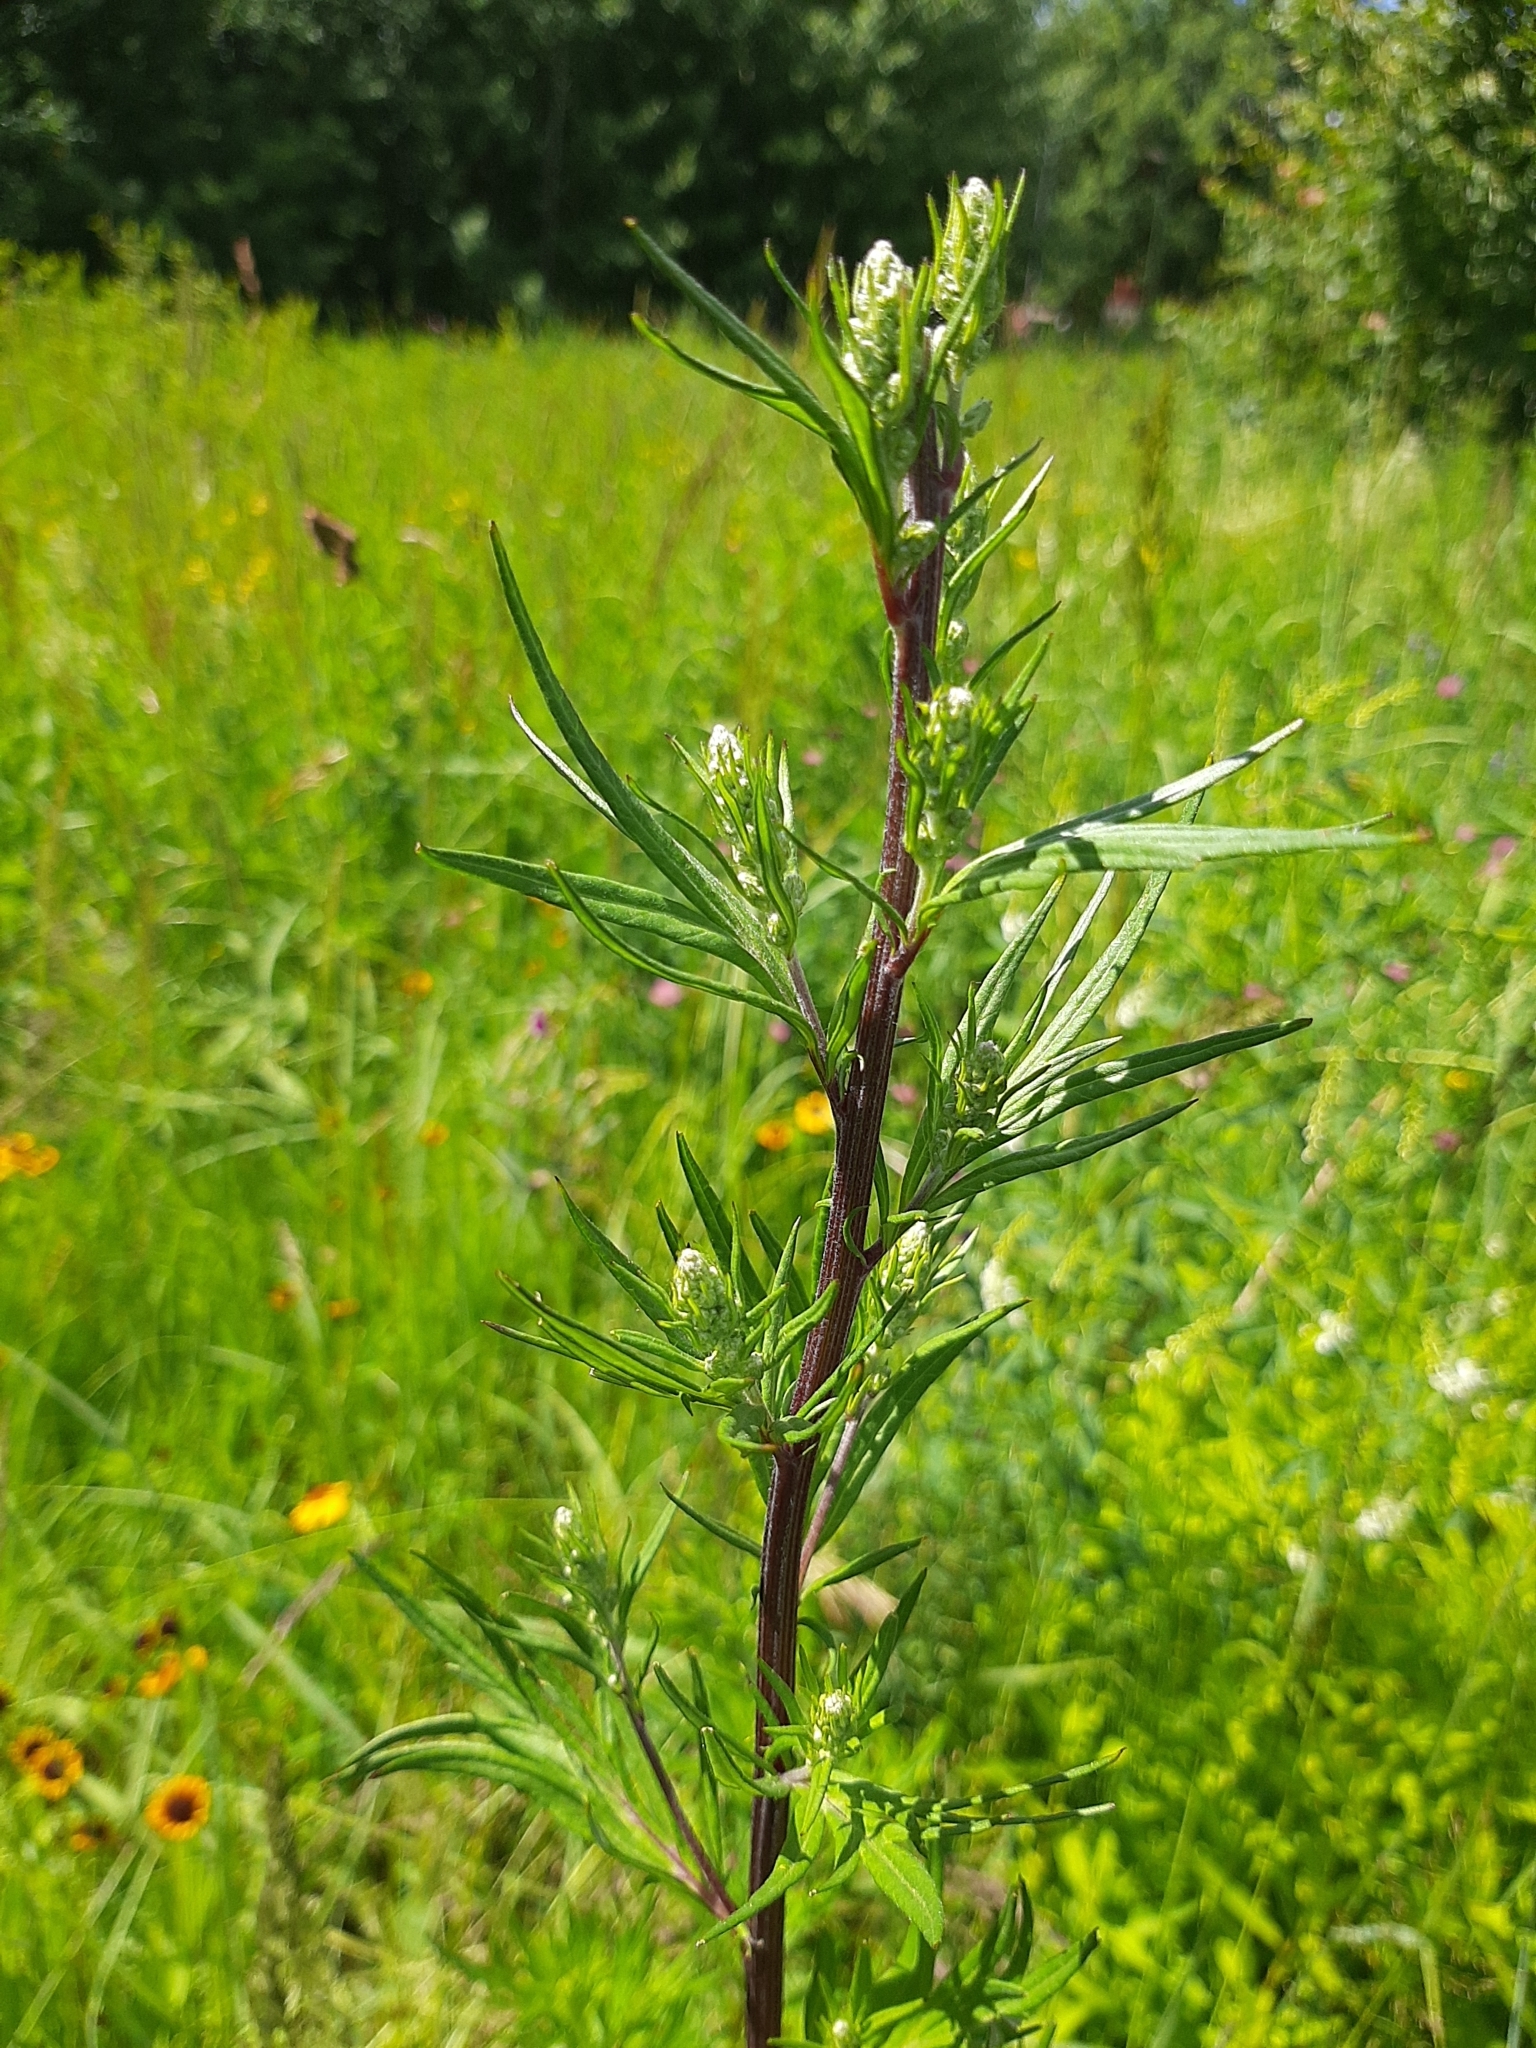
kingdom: Plantae
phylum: Tracheophyta
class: Magnoliopsida
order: Asterales
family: Asteraceae
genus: Artemisia
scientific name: Artemisia vulgaris
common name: Mugwort
